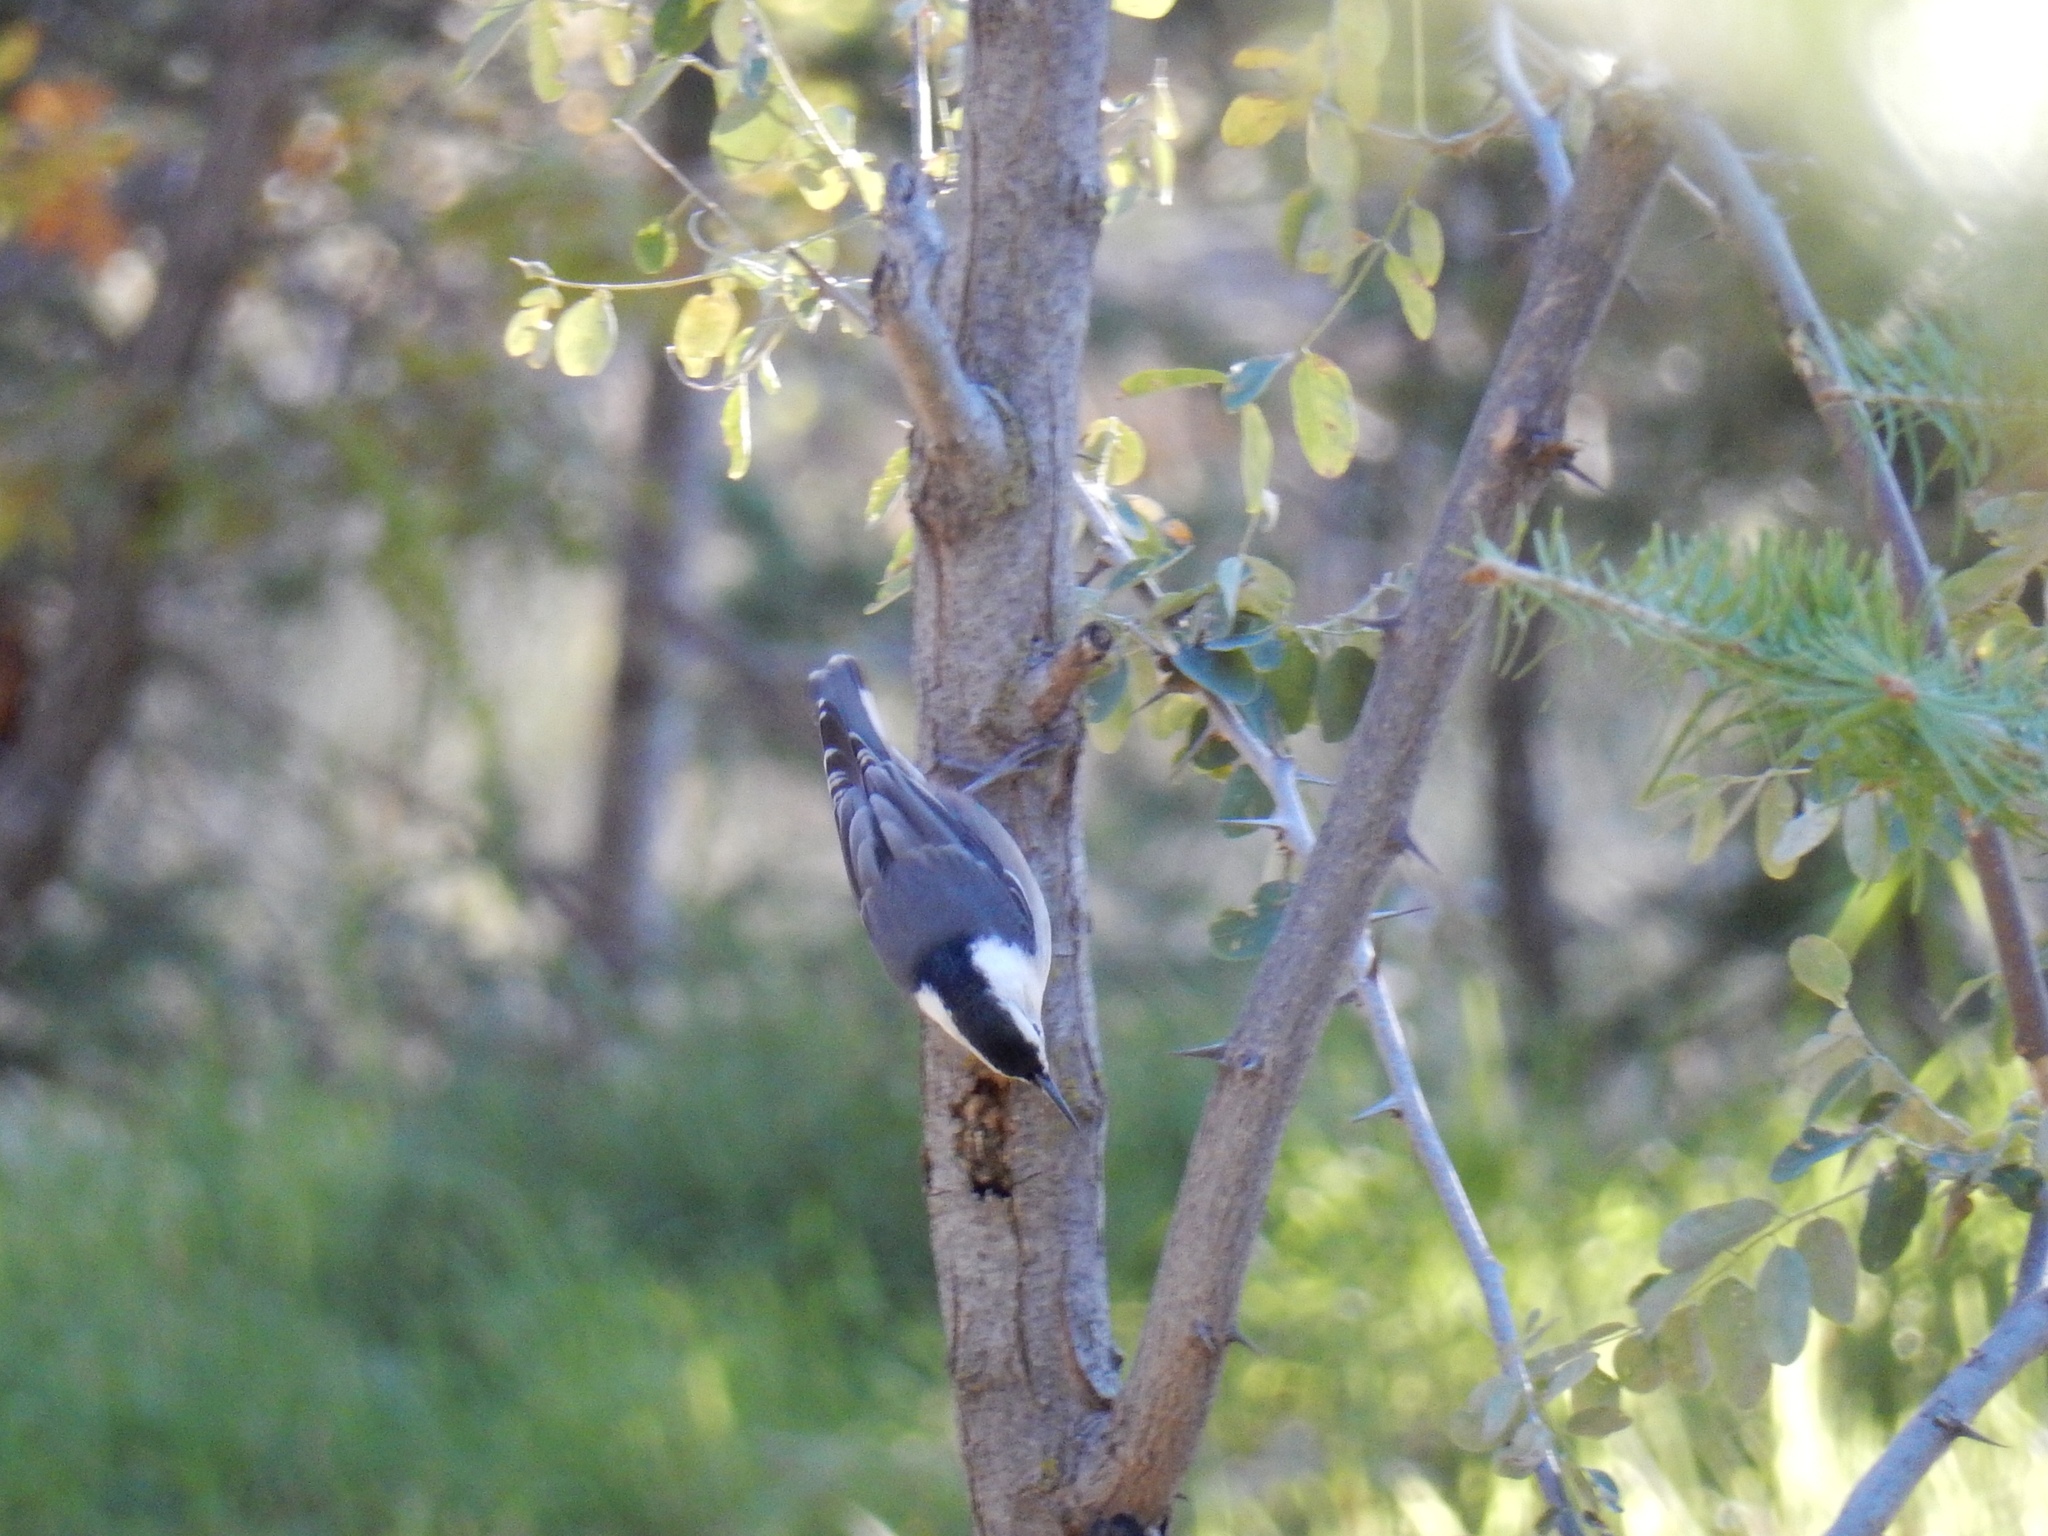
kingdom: Animalia
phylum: Chordata
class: Aves
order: Passeriformes
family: Sittidae
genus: Sitta
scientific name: Sitta carolinensis
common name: White-breasted nuthatch
